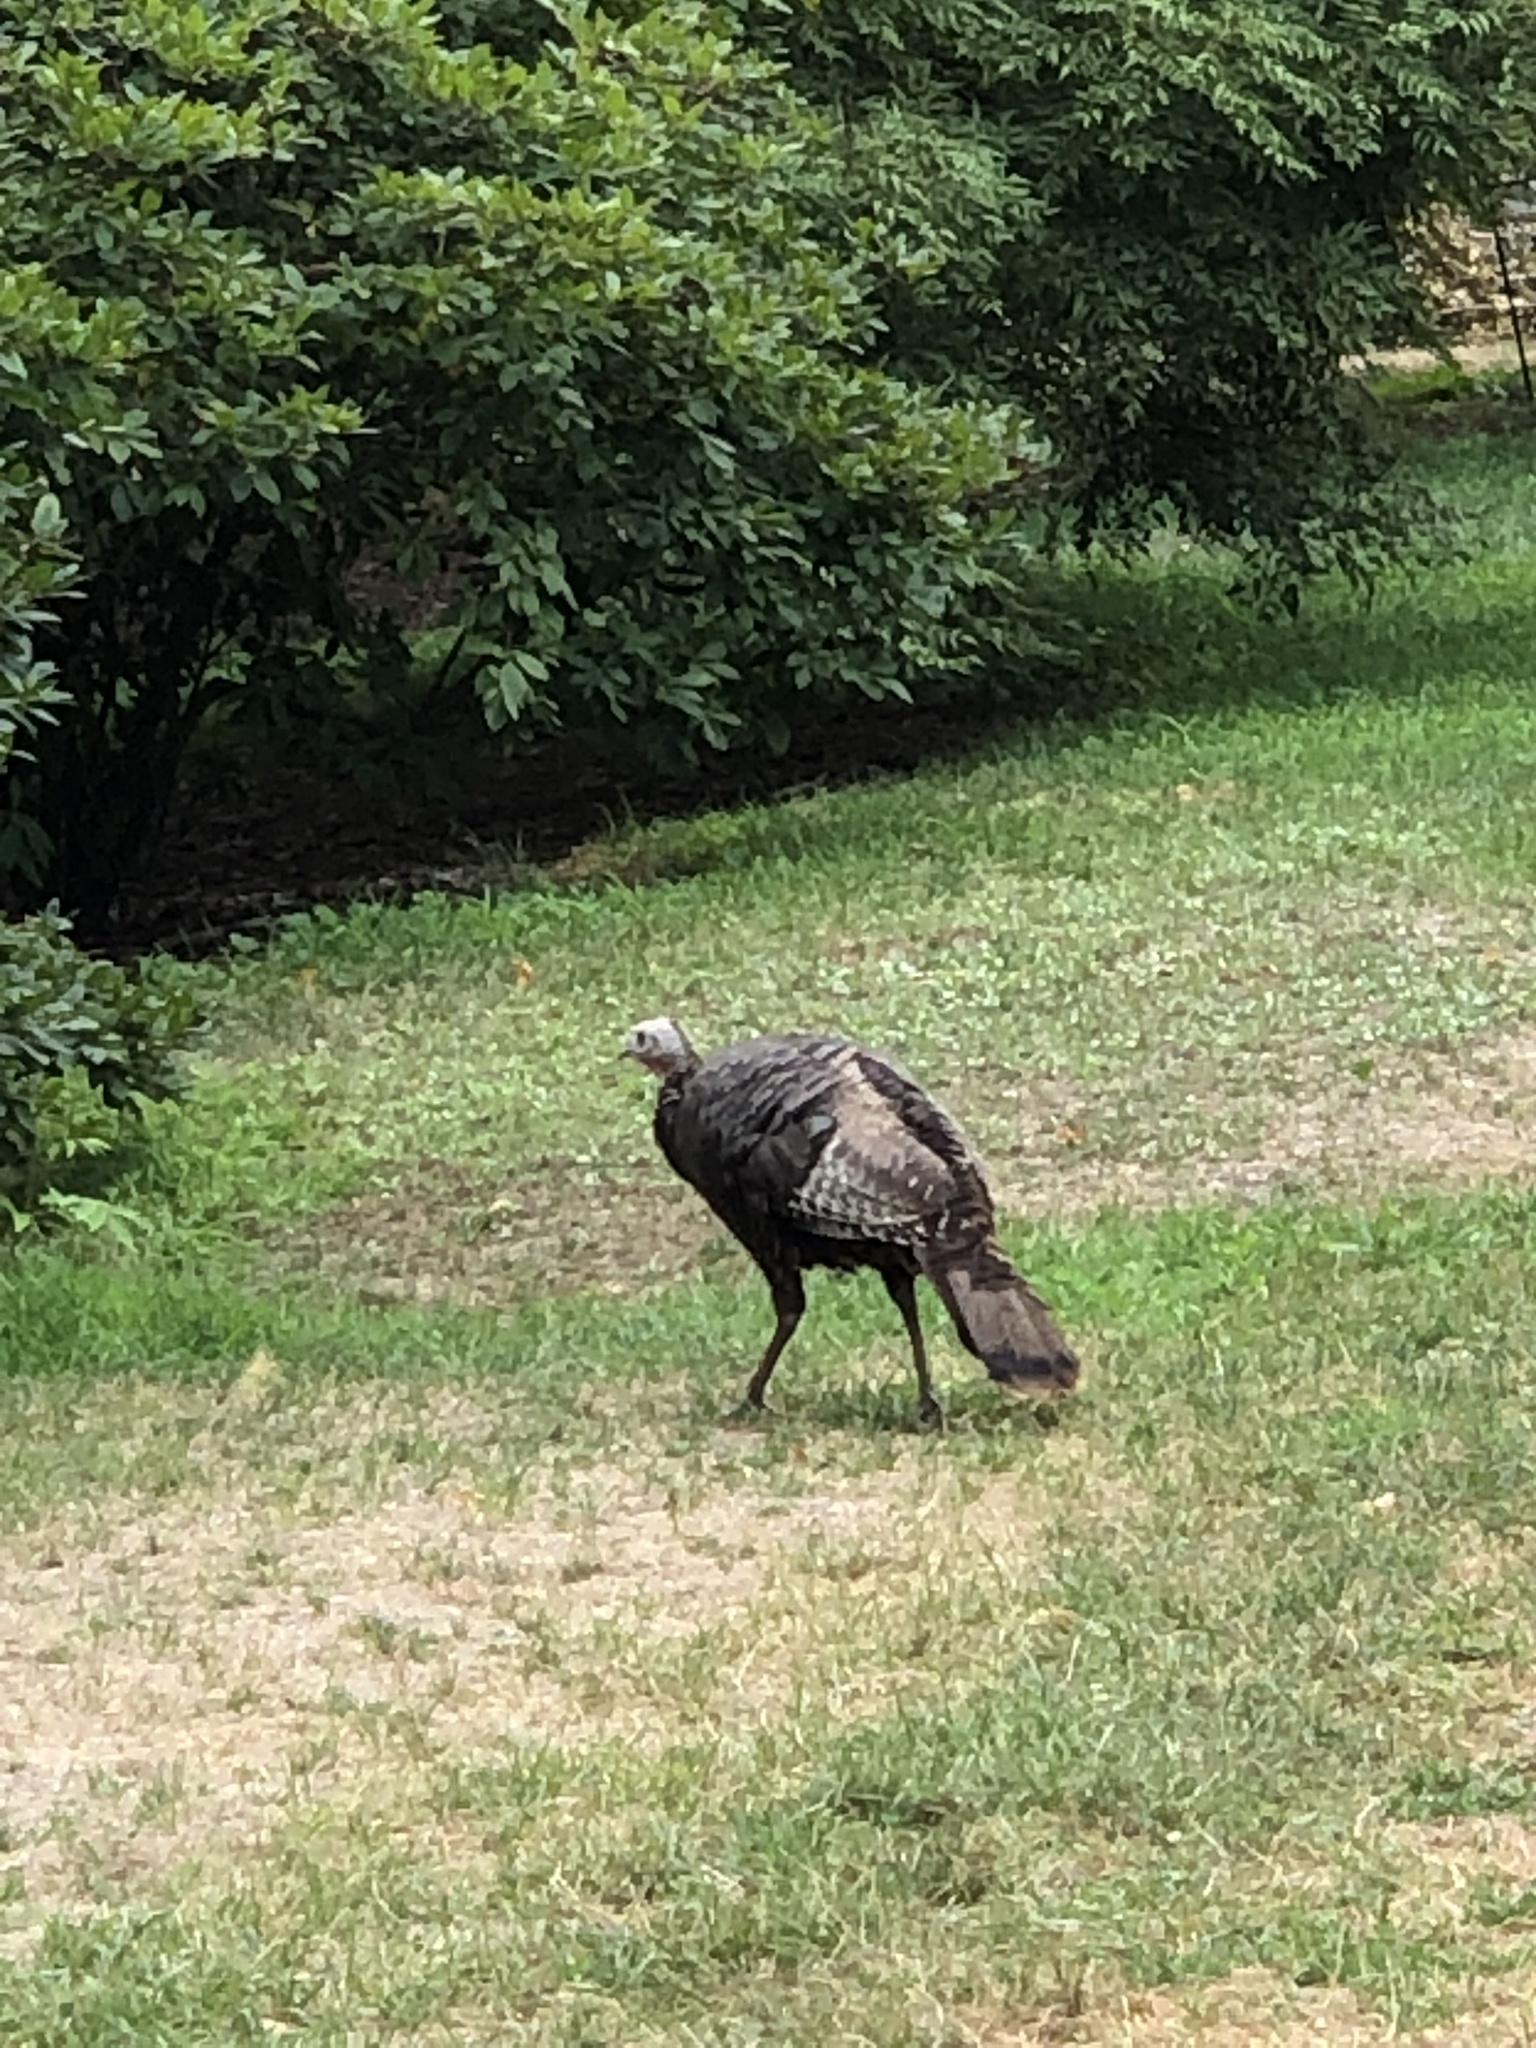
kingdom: Animalia
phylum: Chordata
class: Aves
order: Galliformes
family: Phasianidae
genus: Meleagris
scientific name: Meleagris gallopavo
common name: Wild turkey
